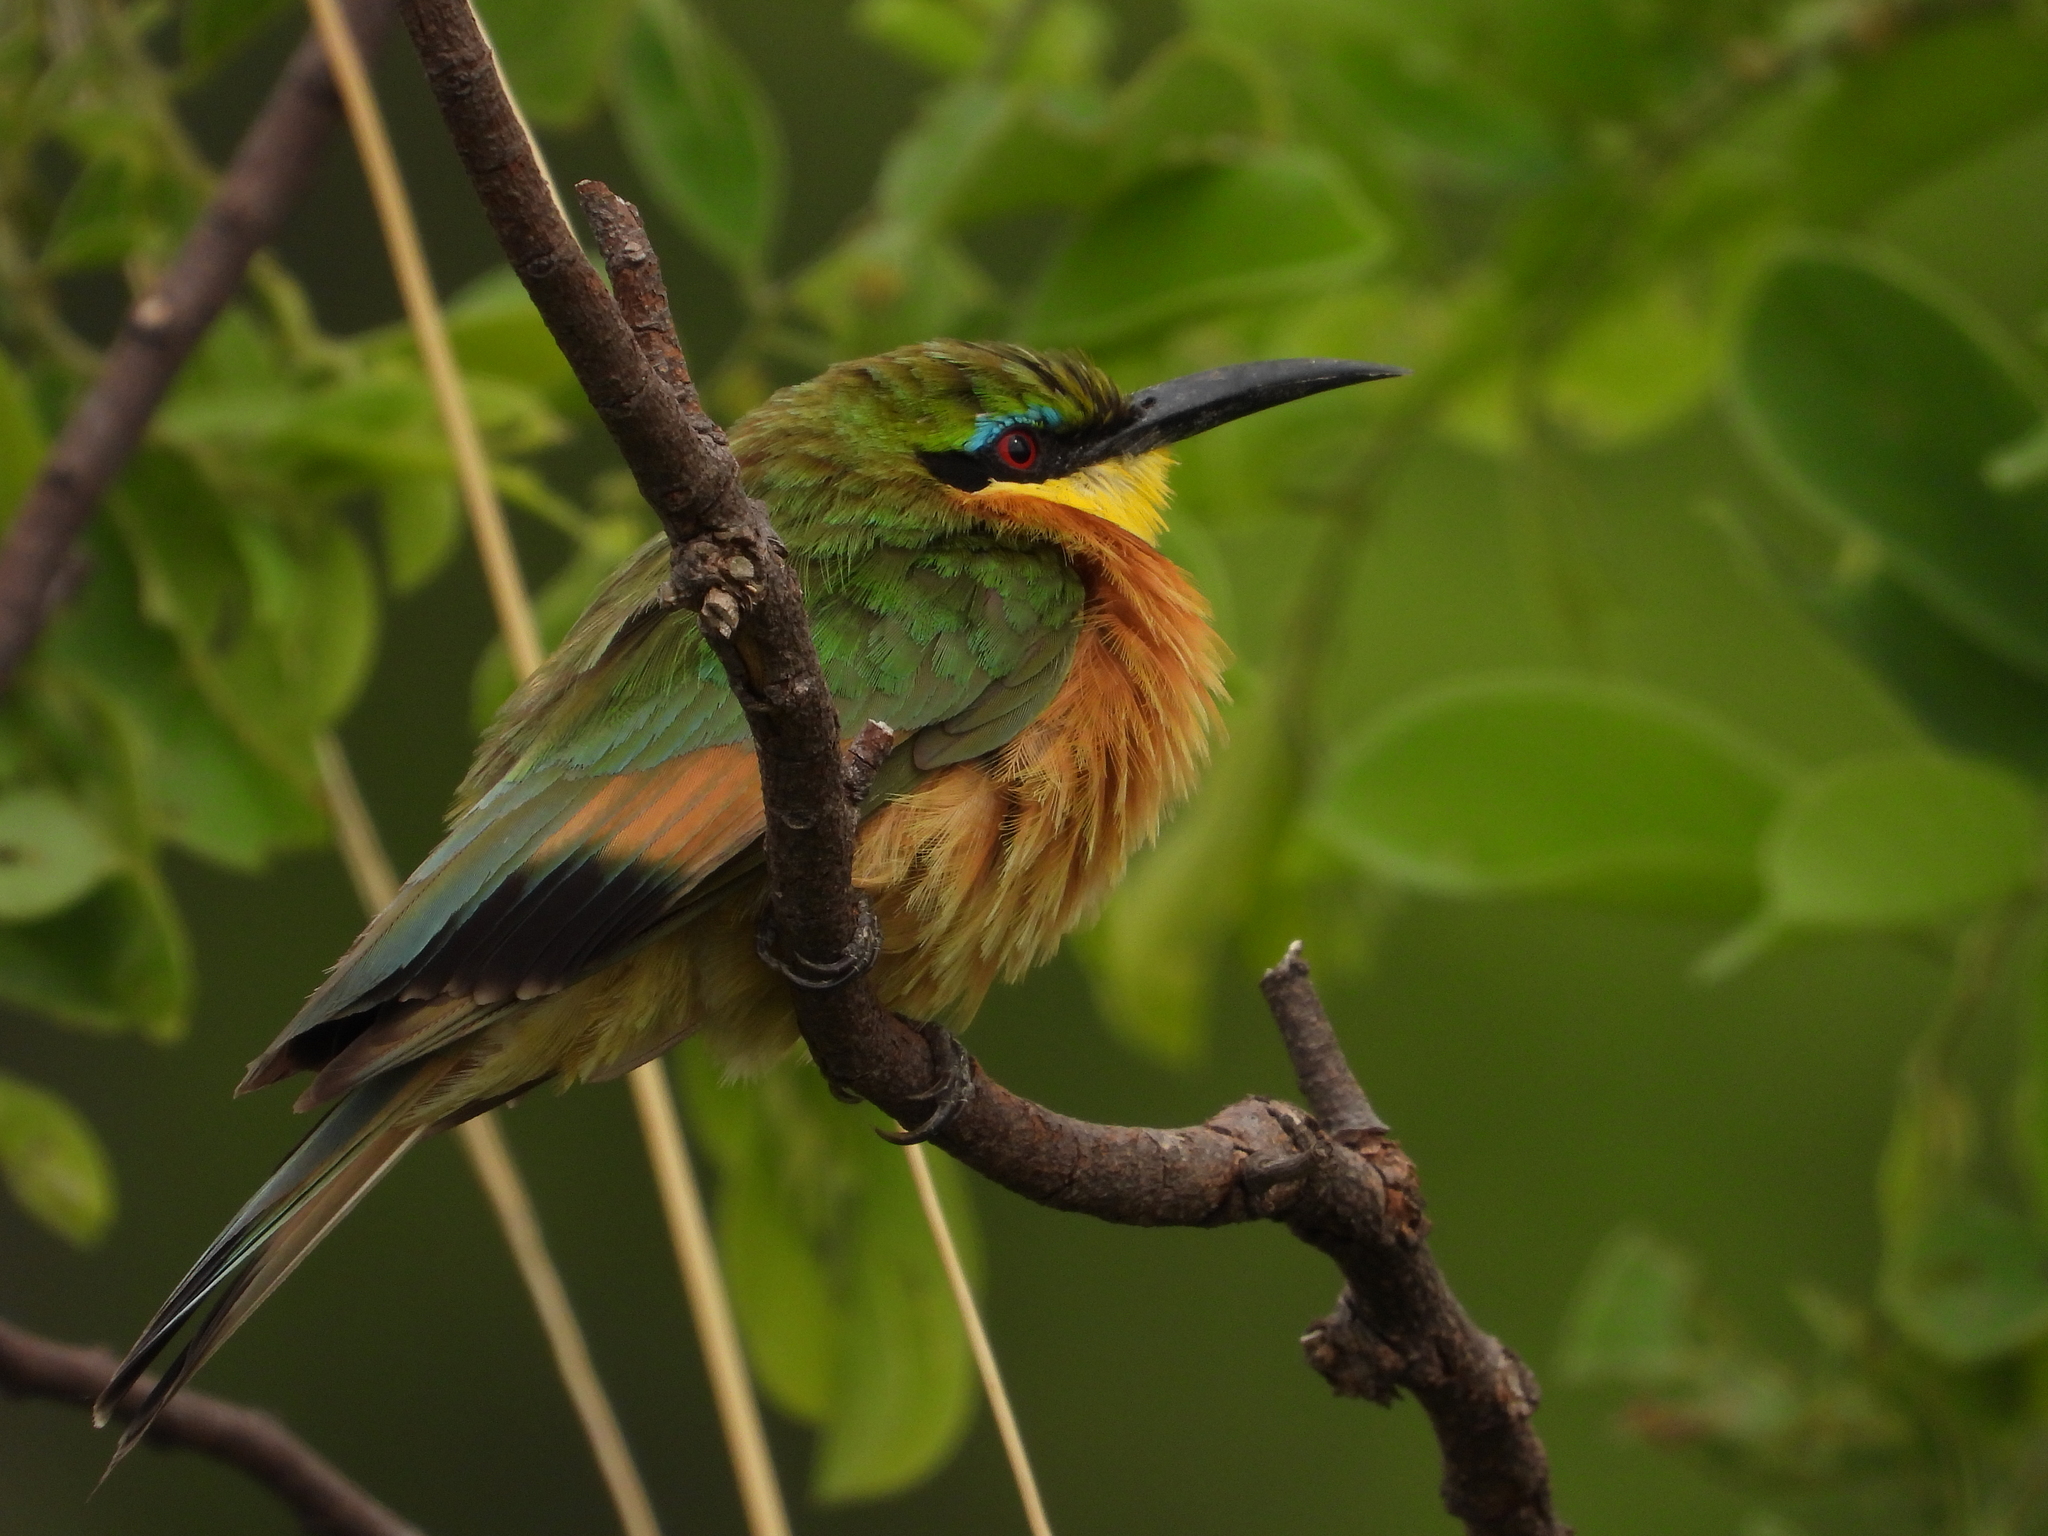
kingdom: Animalia
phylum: Chordata
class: Aves
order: Coraciiformes
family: Meropidae
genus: Merops
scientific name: Merops pusillus
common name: Little bee-eater
